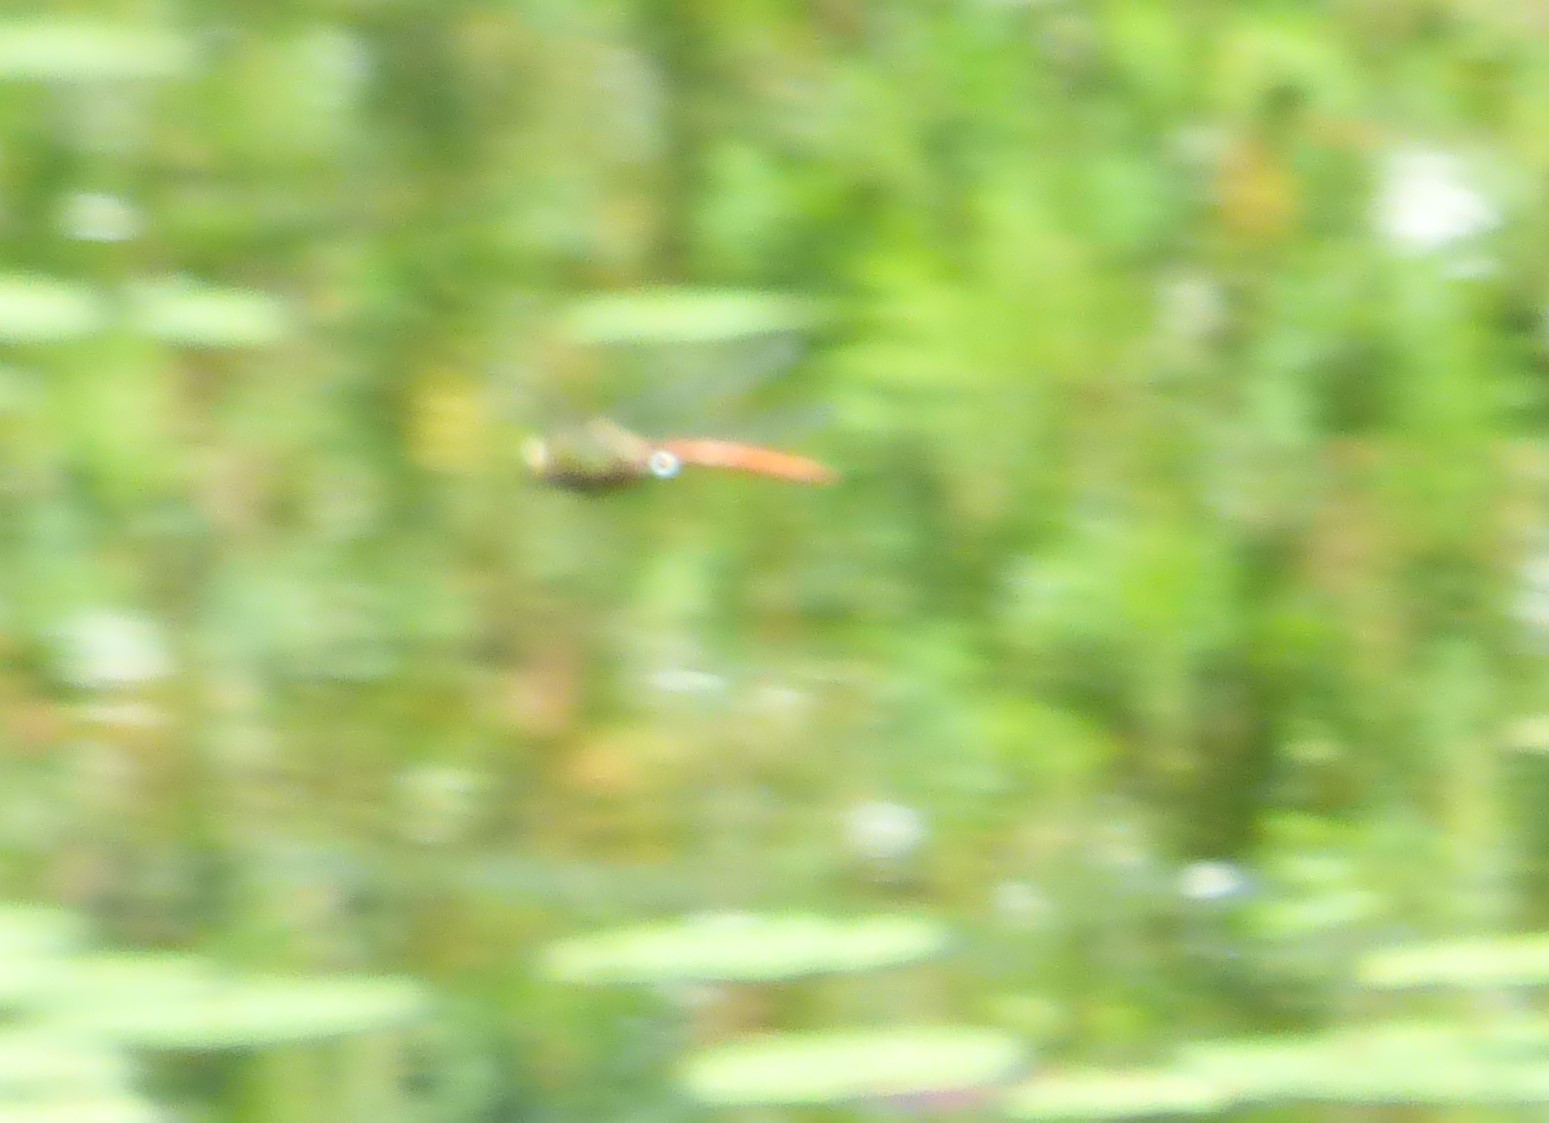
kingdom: Animalia
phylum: Arthropoda
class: Insecta
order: Odonata
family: Aeshnidae
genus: Anax
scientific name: Anax longipes
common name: Comet darner
